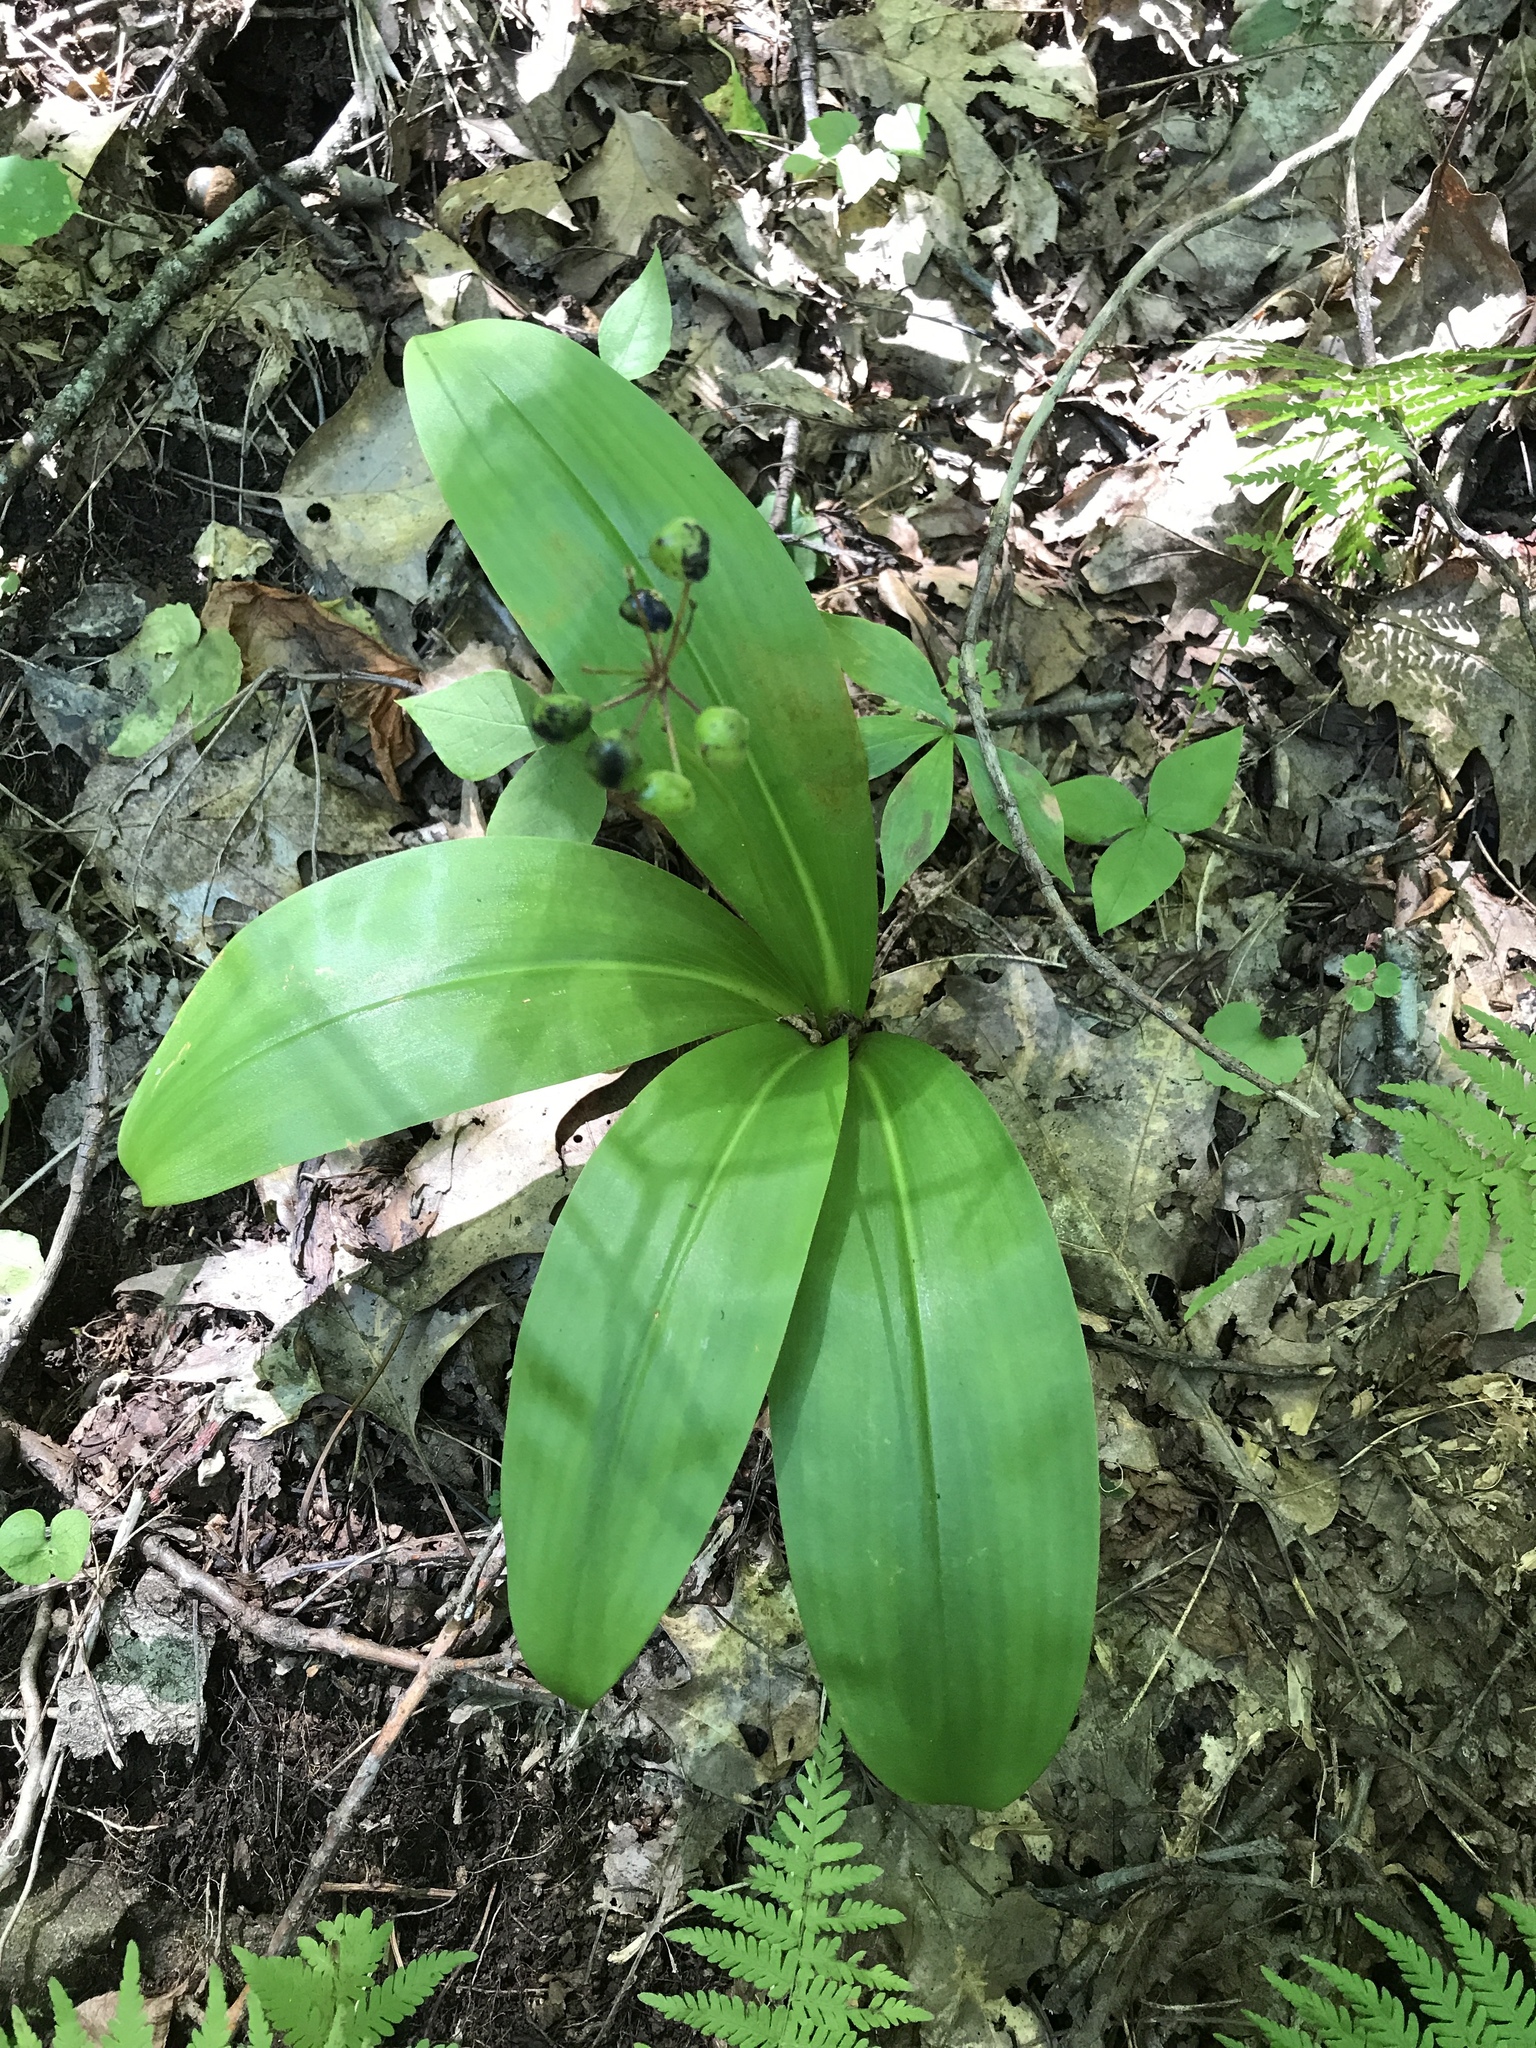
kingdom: Plantae
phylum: Tracheophyta
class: Liliopsida
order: Liliales
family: Liliaceae
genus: Clintonia
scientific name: Clintonia umbellulata
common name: Speckle wood-lily
